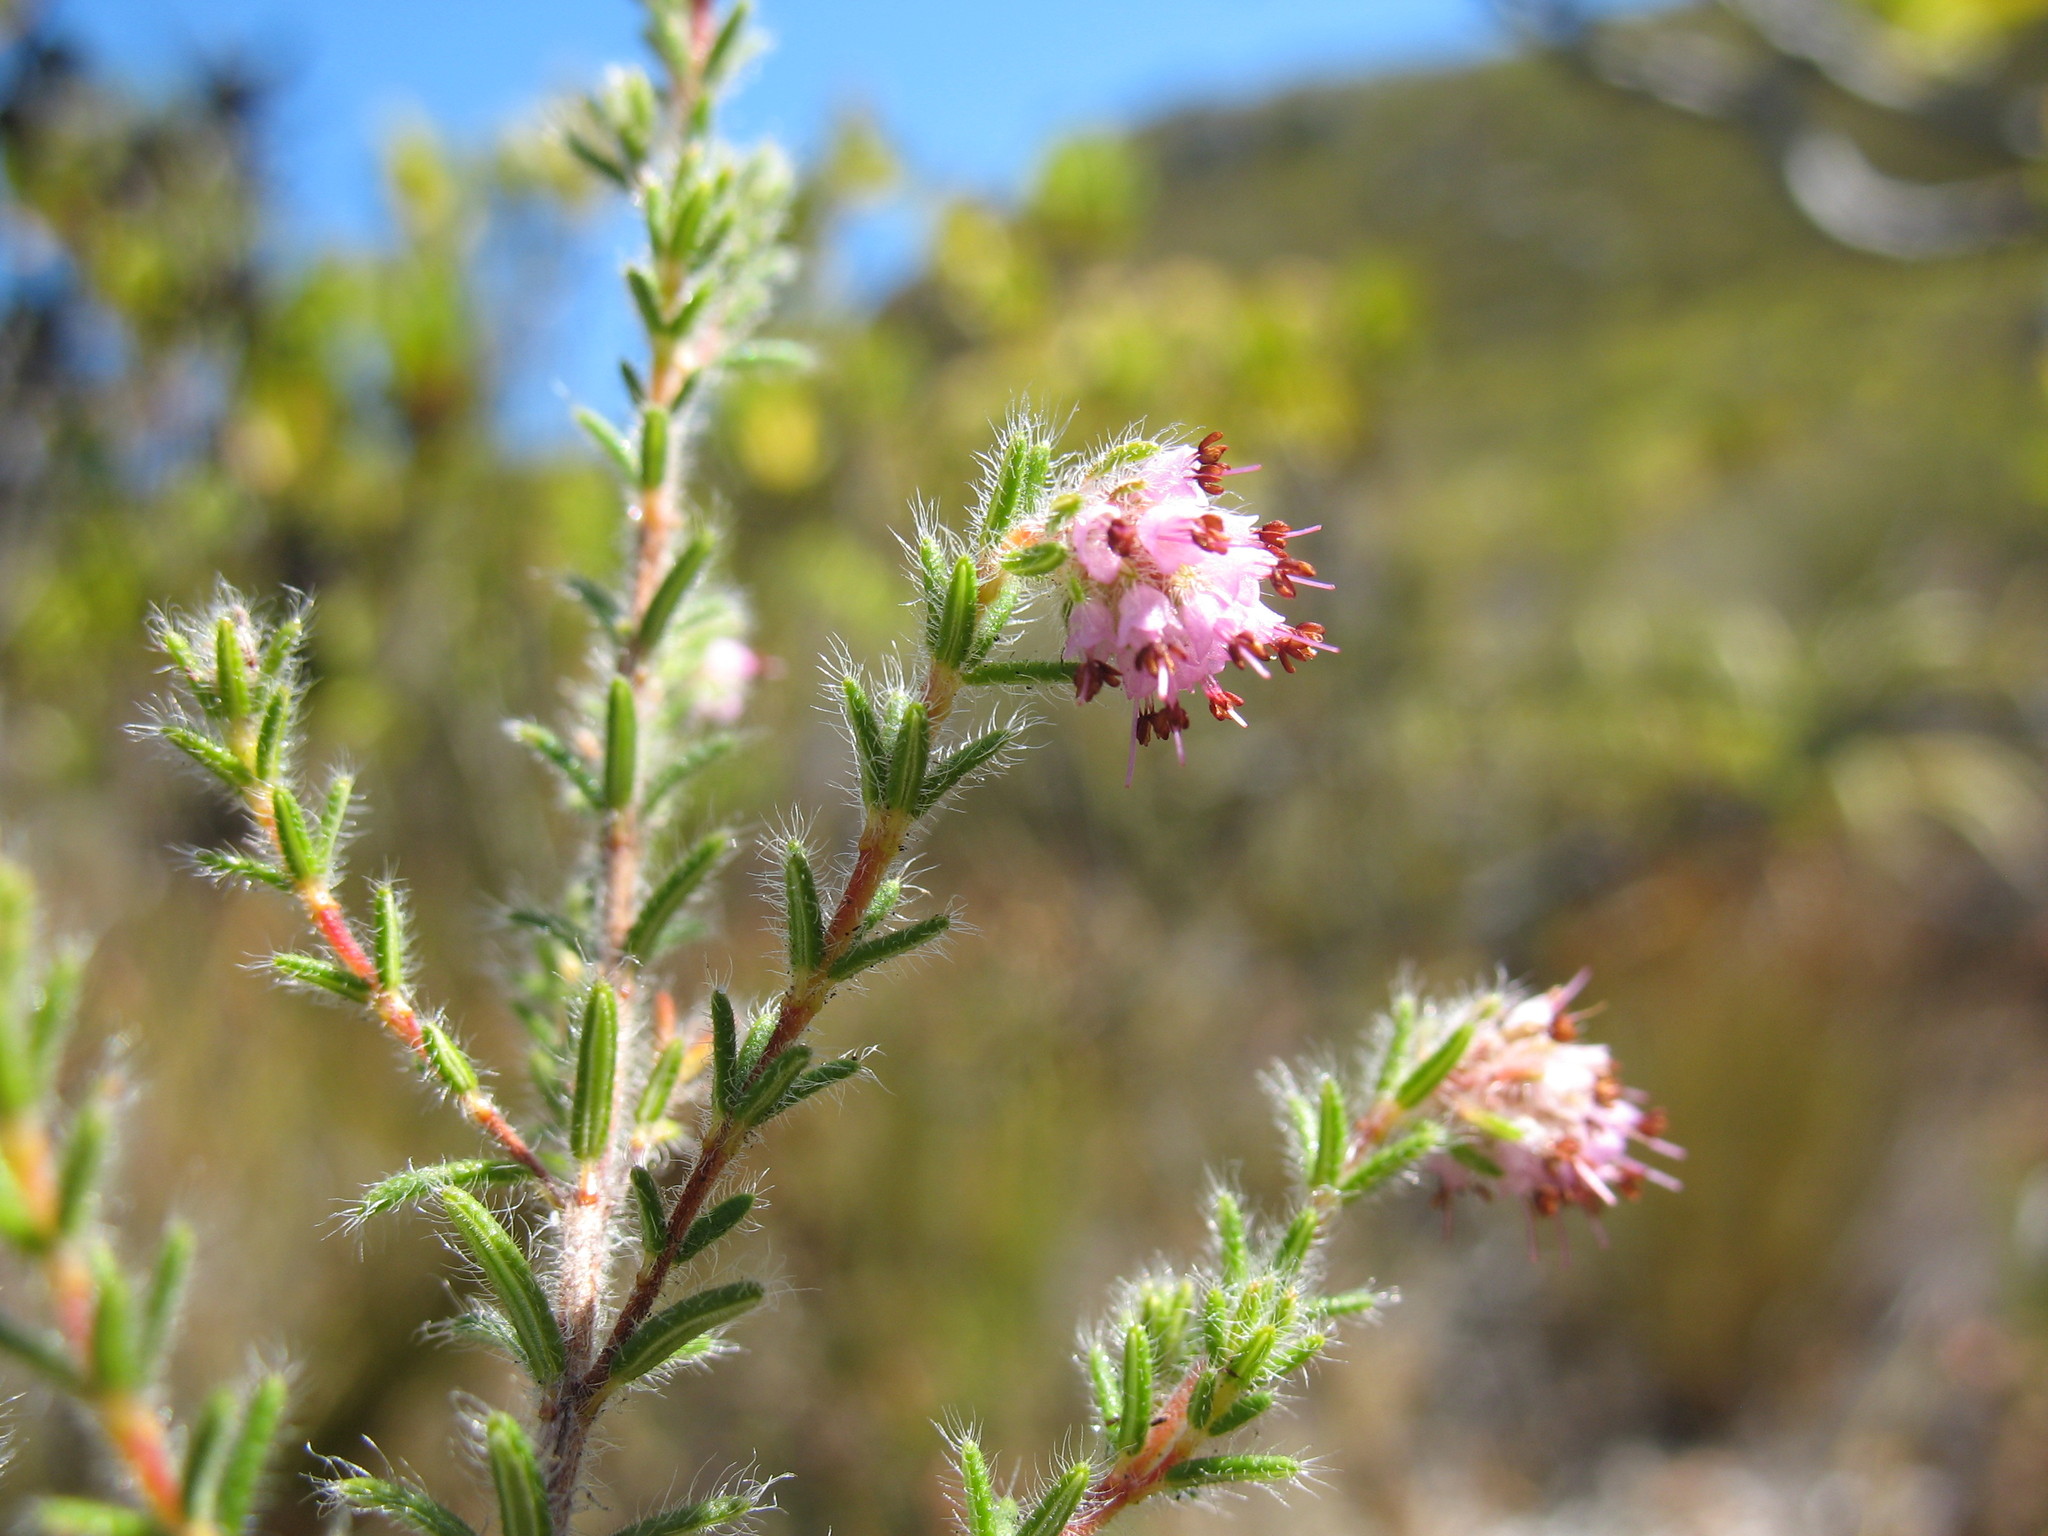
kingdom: Plantae
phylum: Tracheophyta
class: Magnoliopsida
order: Ericales
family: Ericaceae
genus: Erica
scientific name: Erica similis
